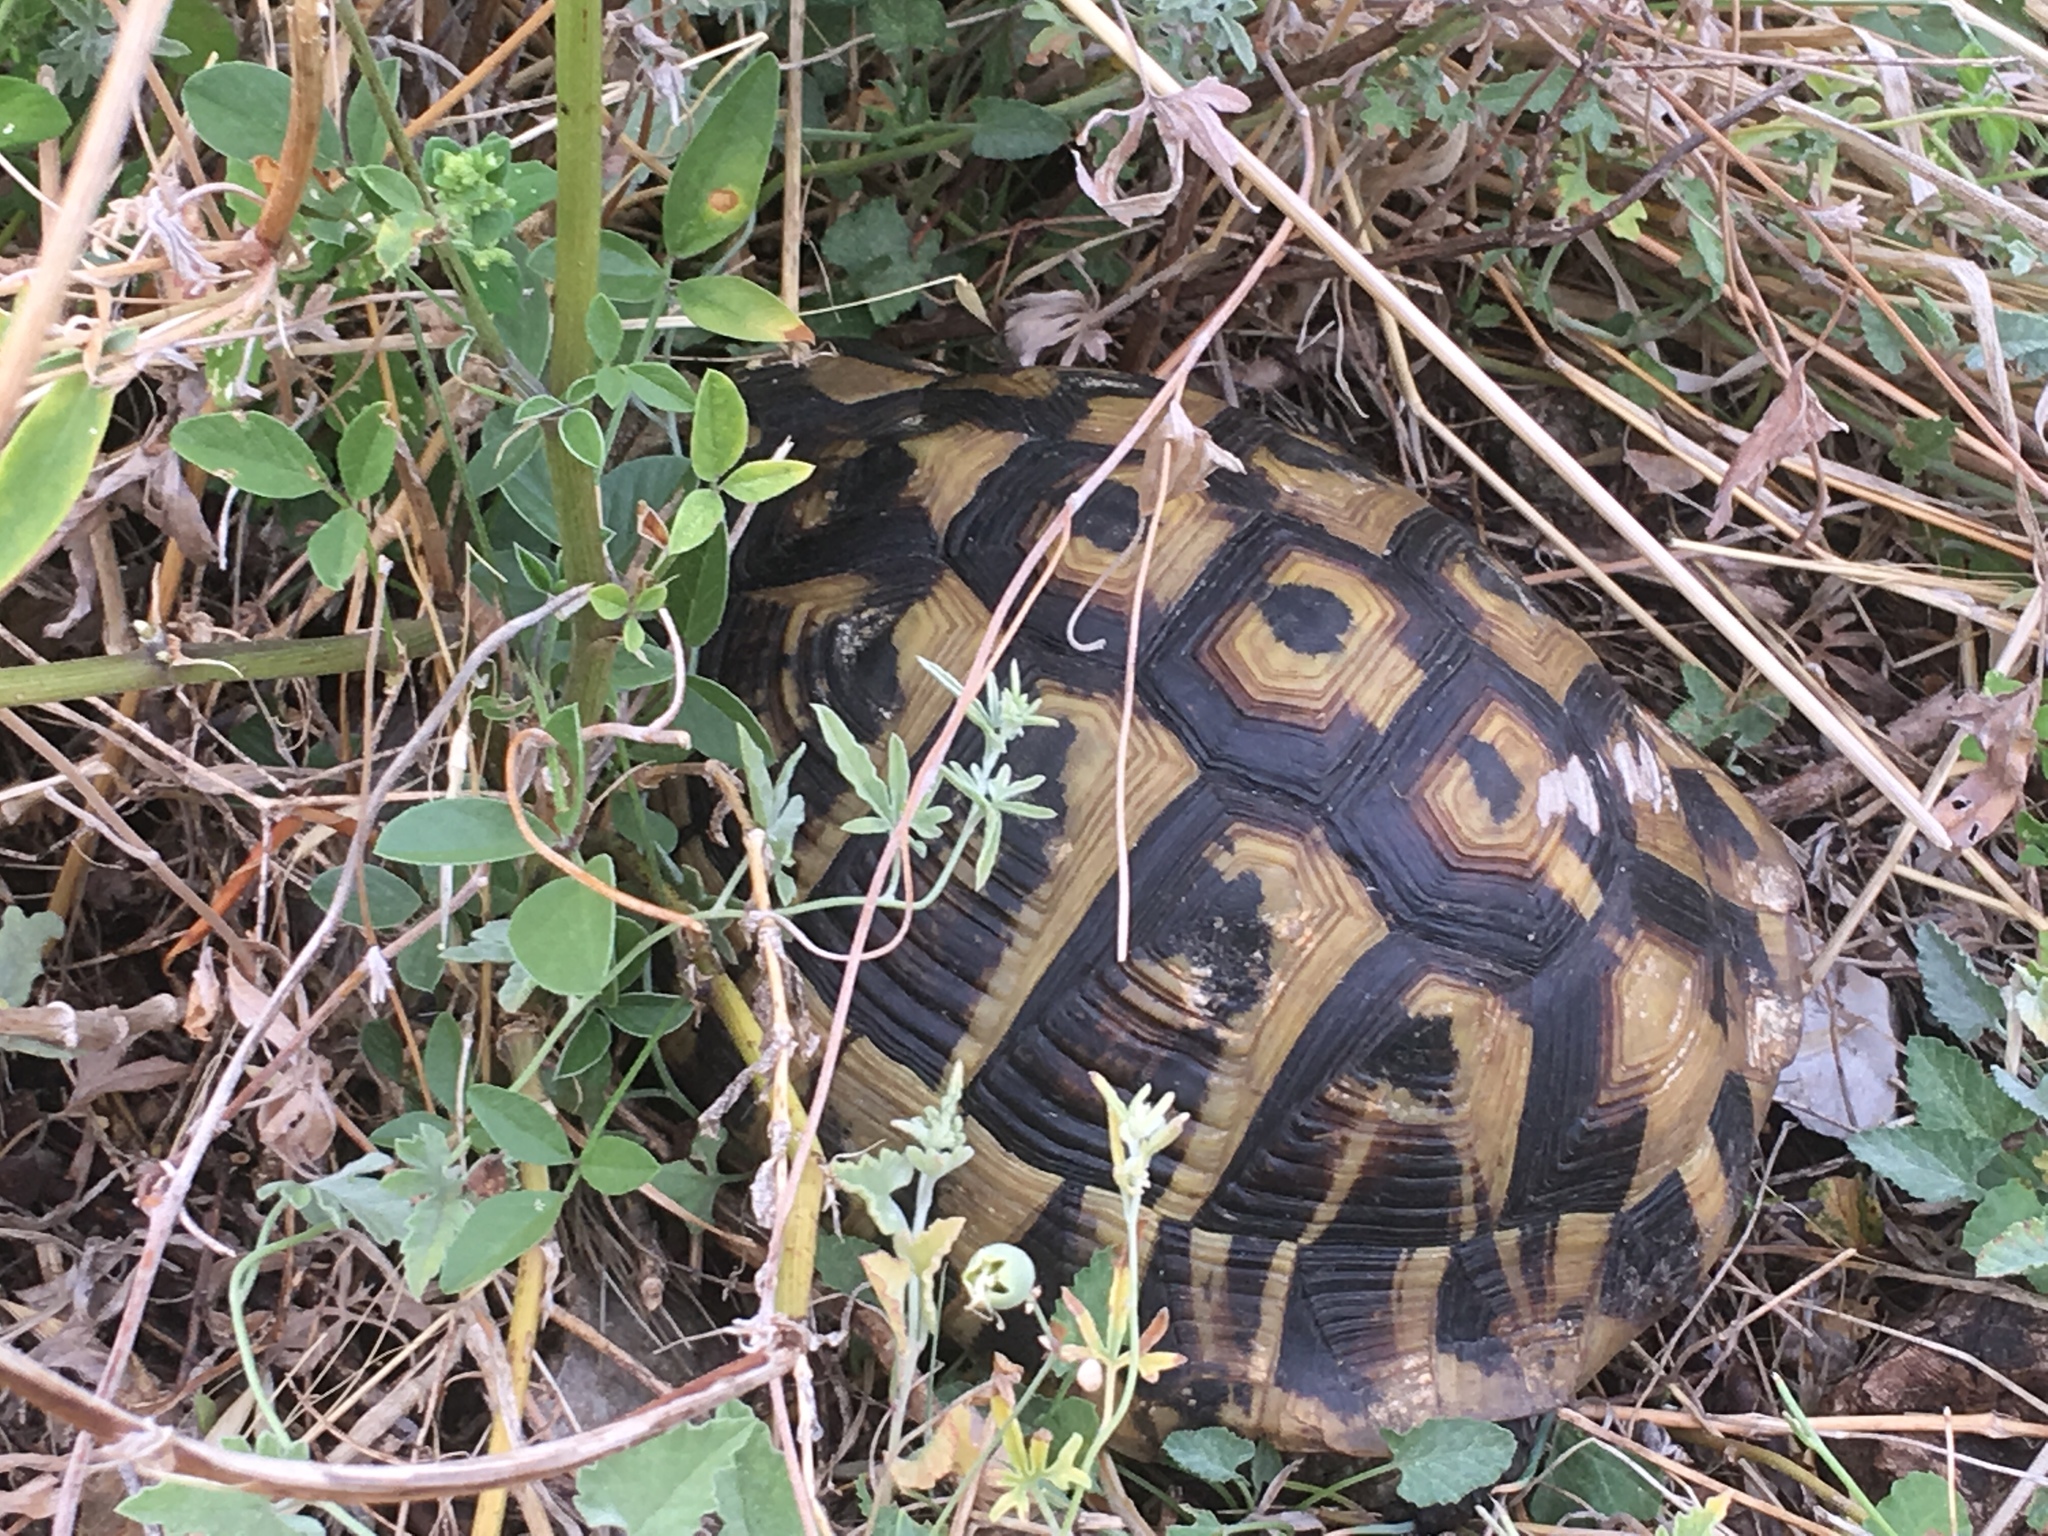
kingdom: Animalia
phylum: Chordata
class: Testudines
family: Testudinidae
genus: Testudo
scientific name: Testudo hermanni
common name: Hermann's tortoise
